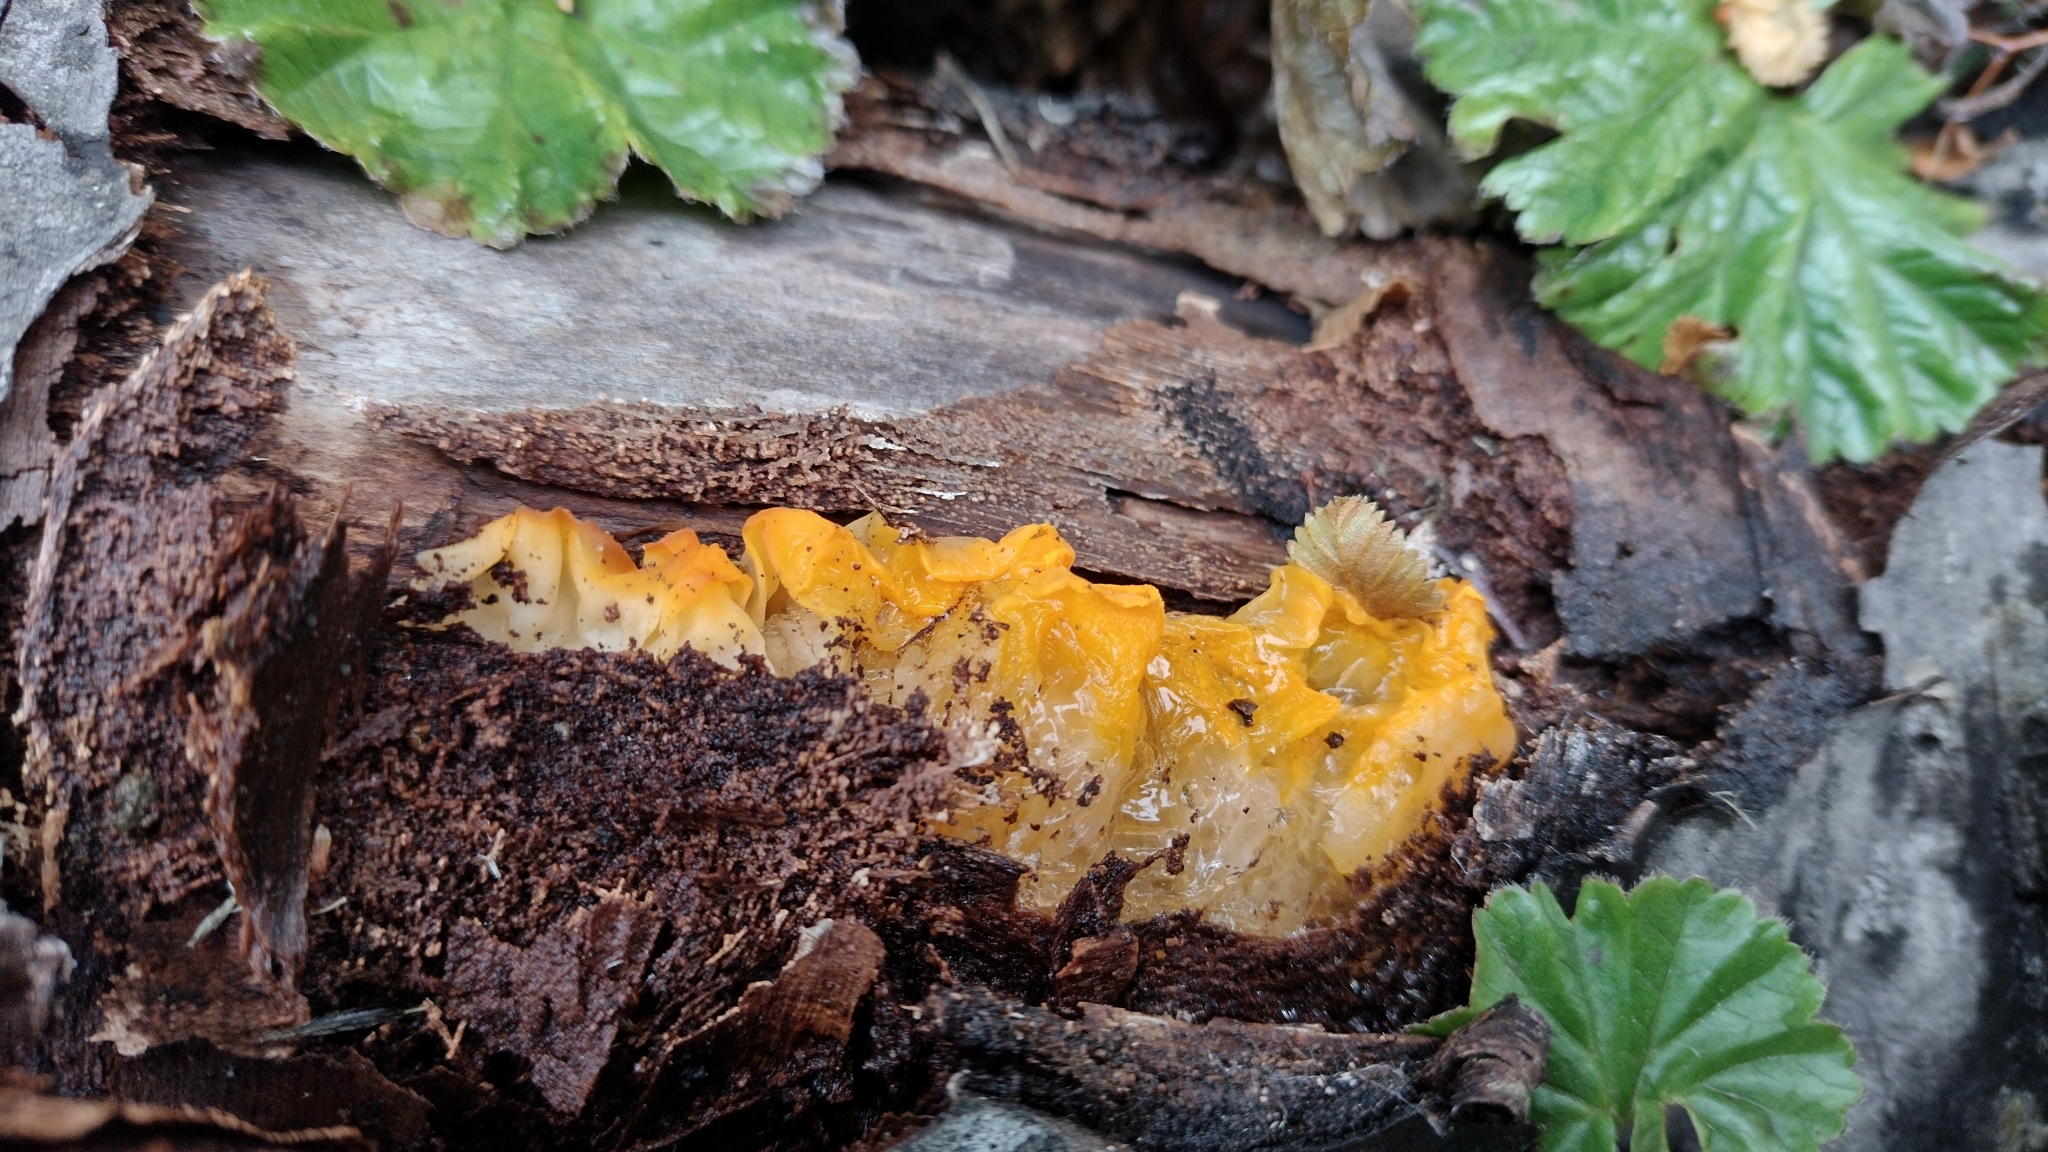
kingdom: Fungi
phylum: Basidiomycota
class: Tremellomycetes
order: Tremellales
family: Tremellaceae
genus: Tremella
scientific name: Tremella mesenterica
